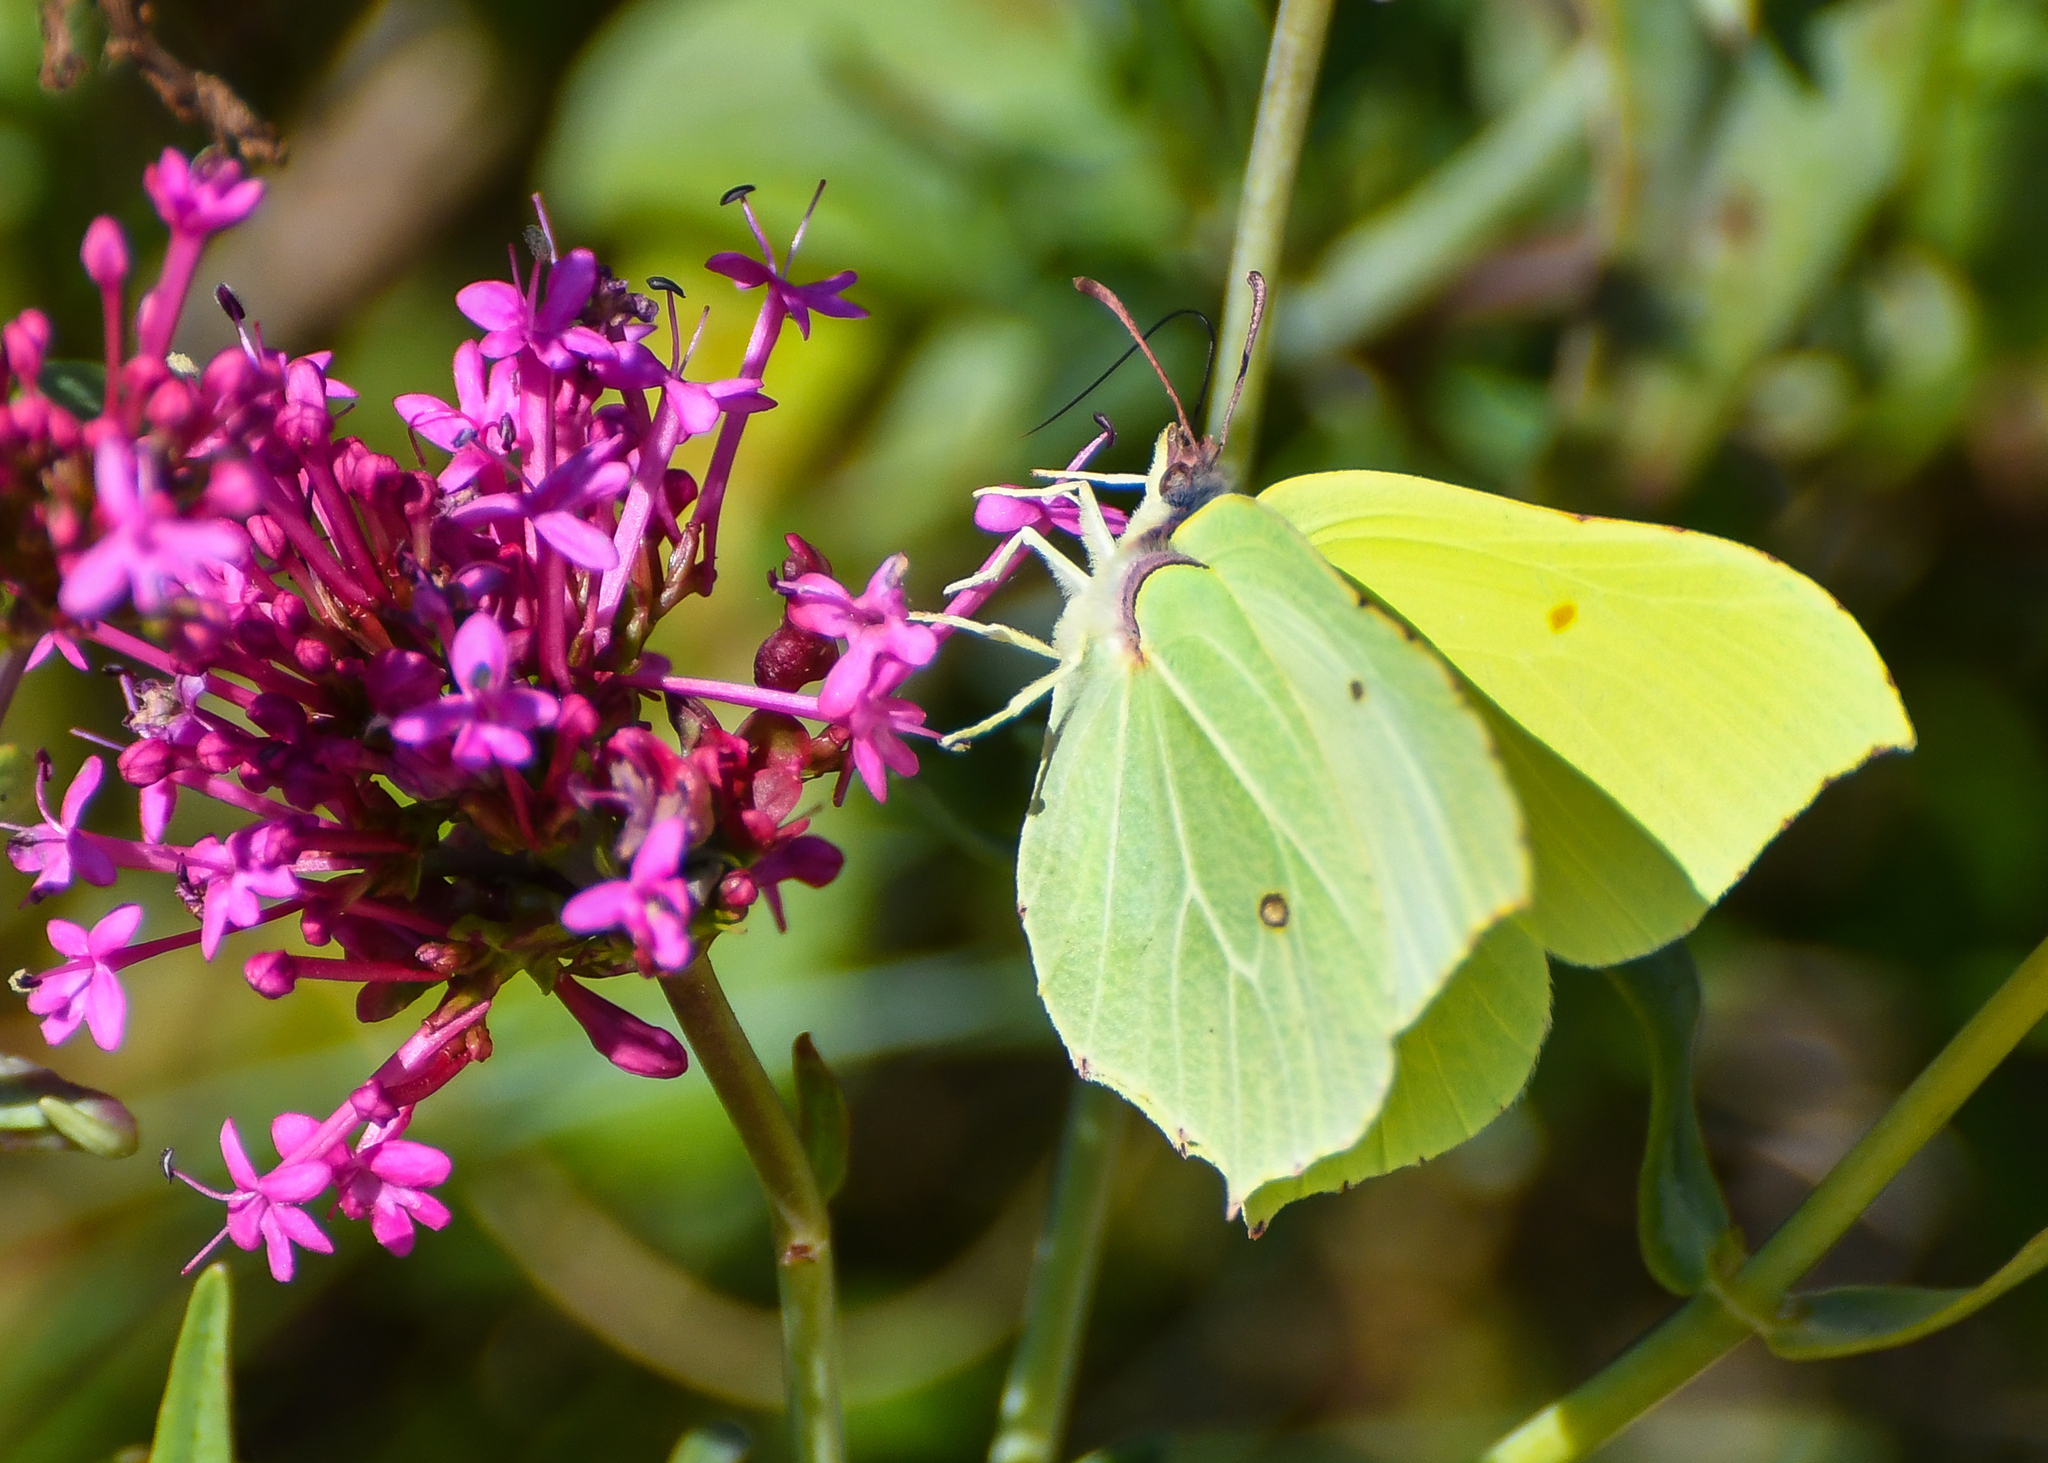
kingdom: Animalia
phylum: Arthropoda
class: Insecta
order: Lepidoptera
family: Pieridae
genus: Gonepteryx
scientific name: Gonepteryx rhamni
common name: Brimstone
